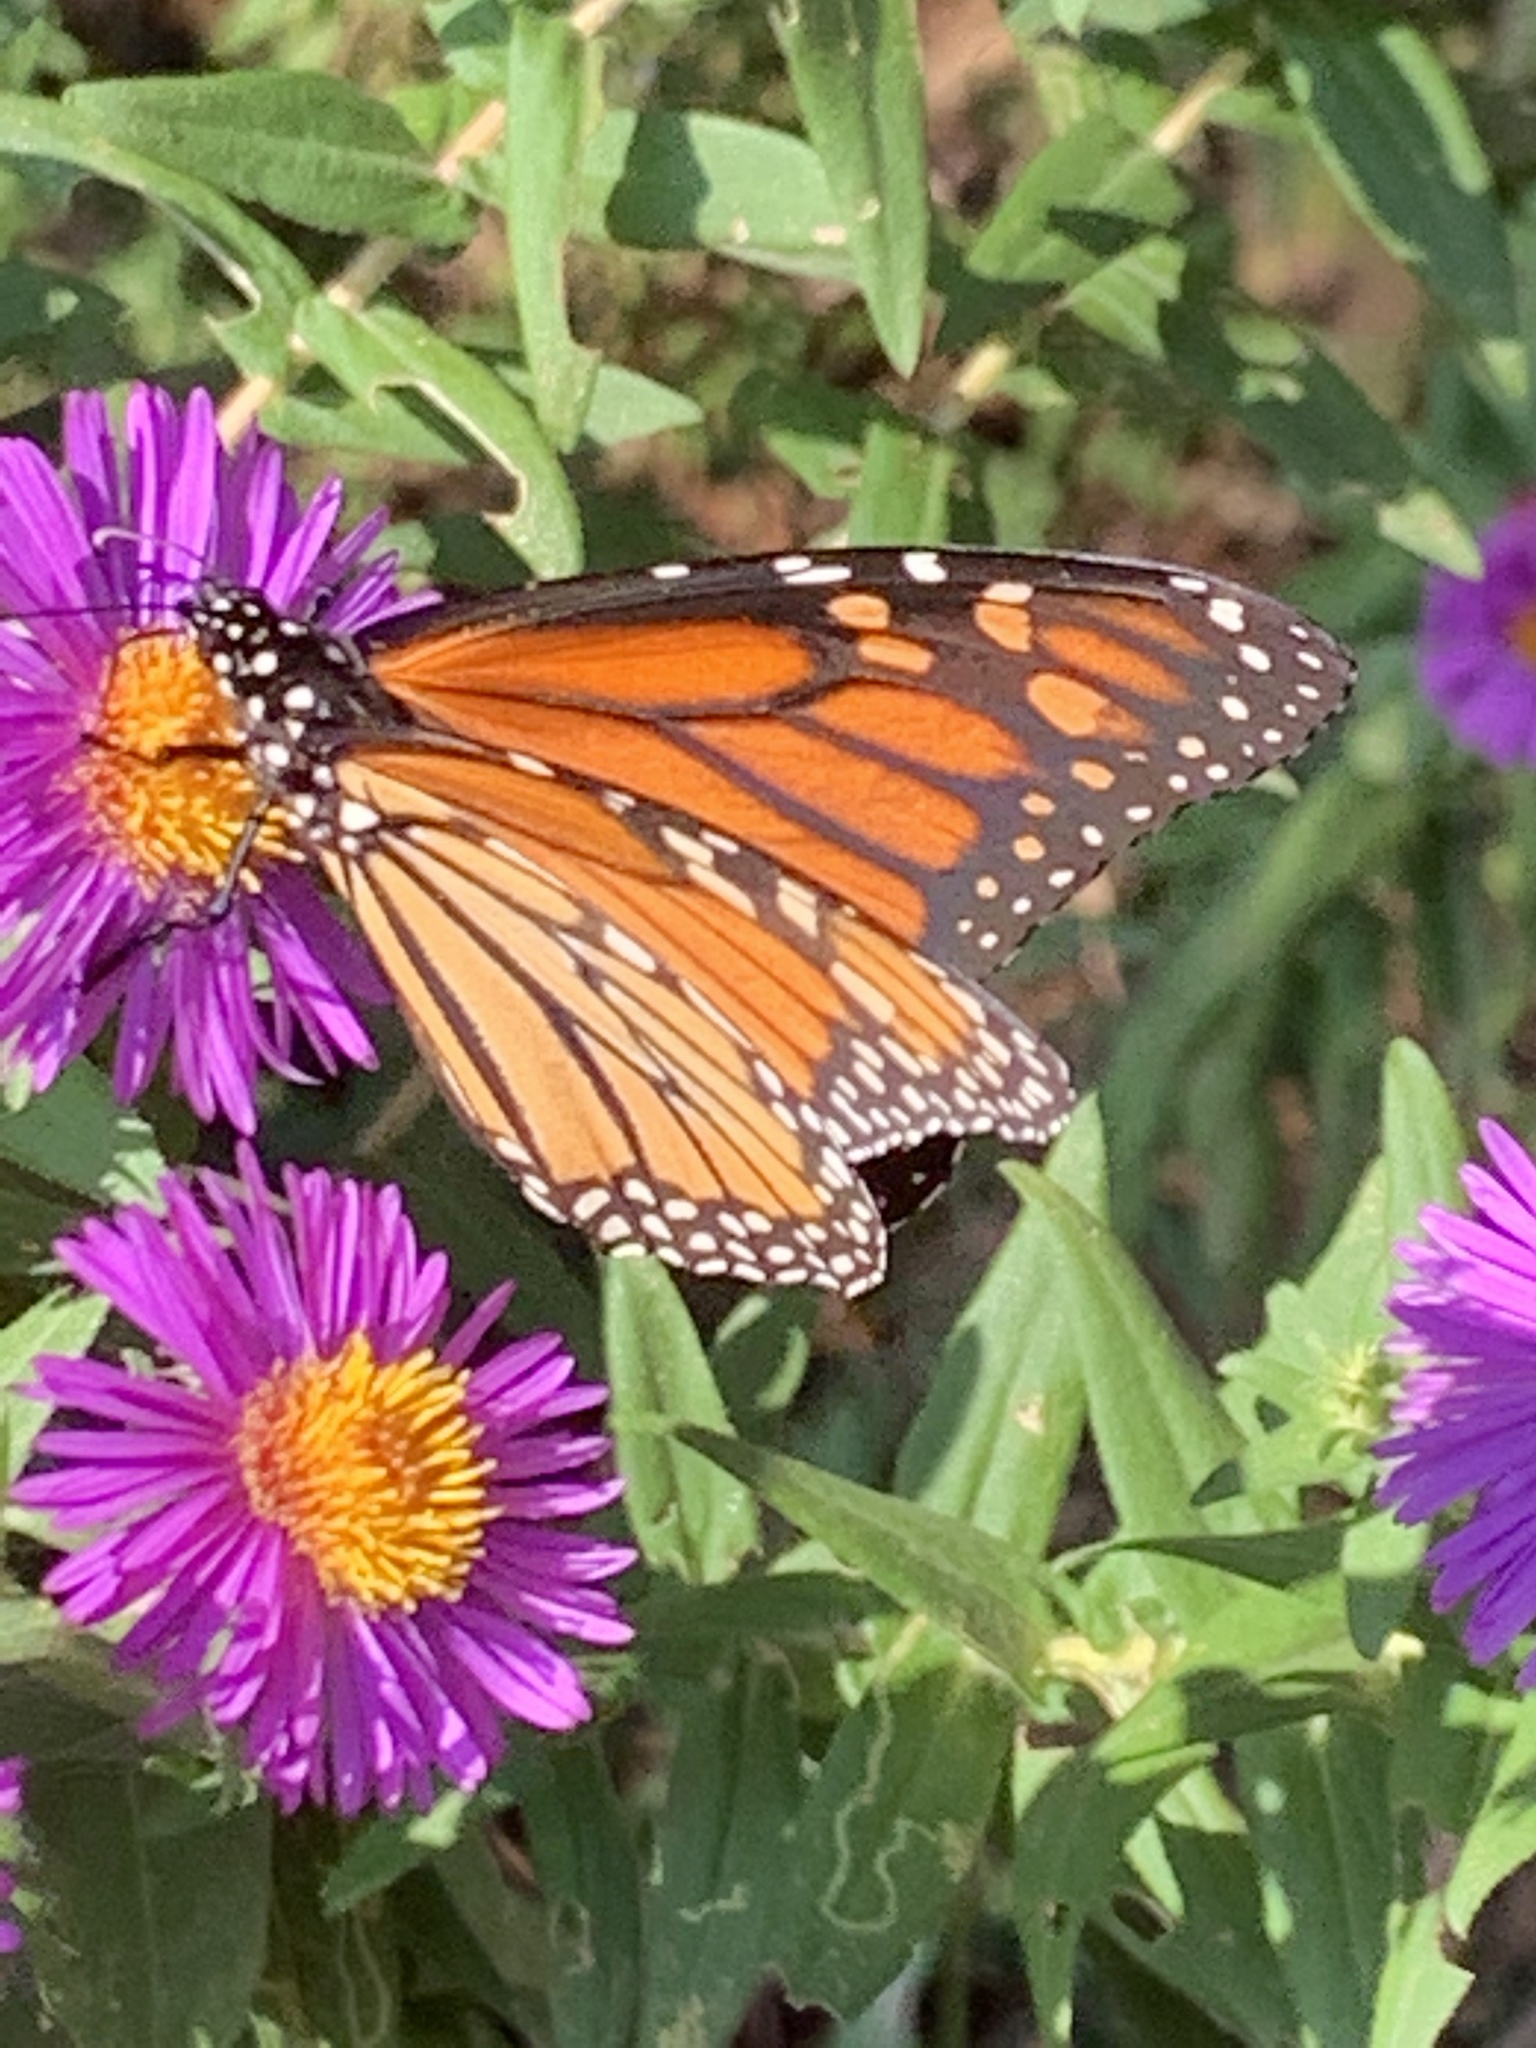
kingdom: Animalia
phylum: Arthropoda
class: Insecta
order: Lepidoptera
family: Nymphalidae
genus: Danaus
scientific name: Danaus plexippus
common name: Monarch
